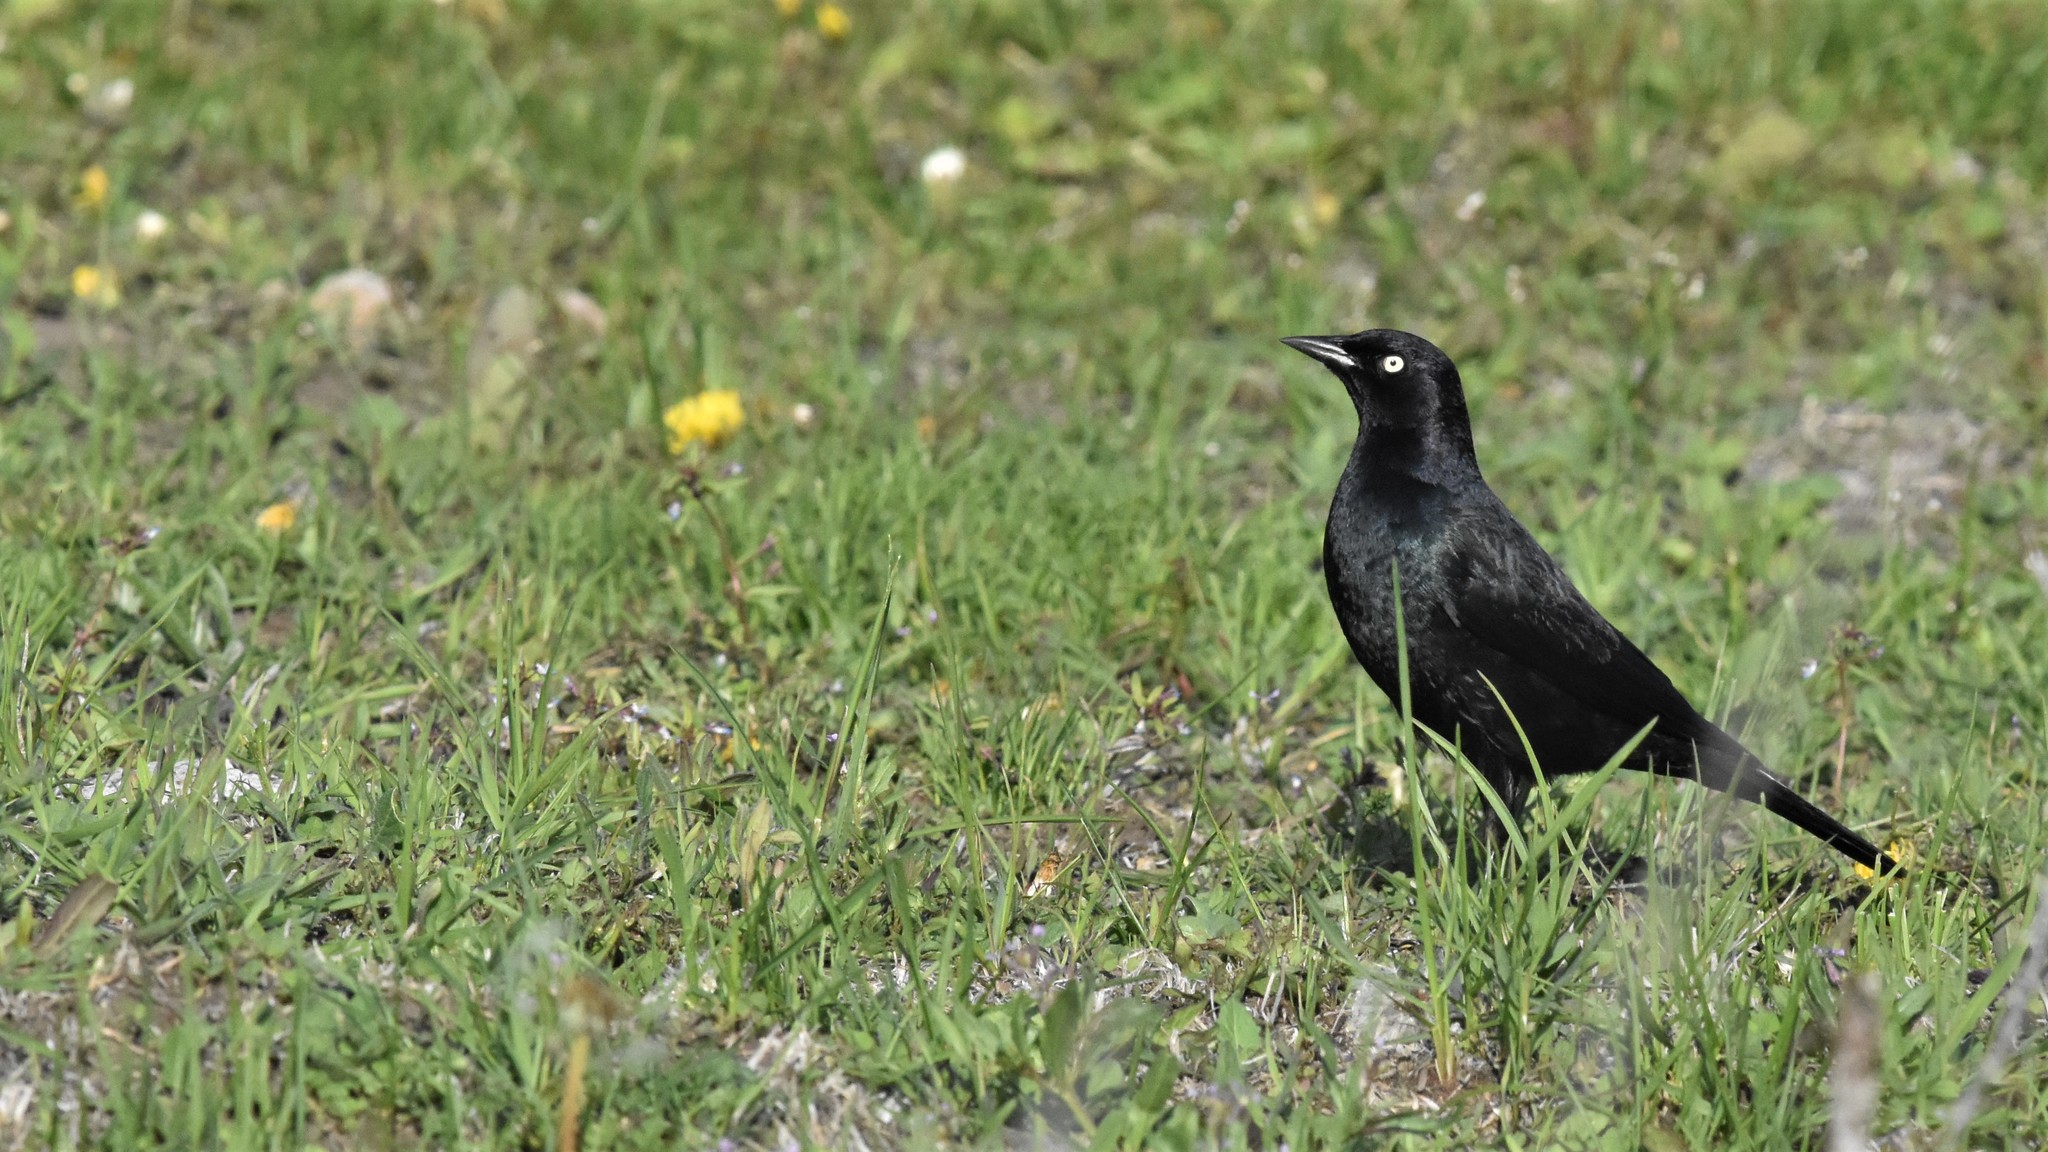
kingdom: Animalia
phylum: Chordata
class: Aves
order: Passeriformes
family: Icteridae
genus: Euphagus
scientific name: Euphagus cyanocephalus
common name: Brewer's blackbird
